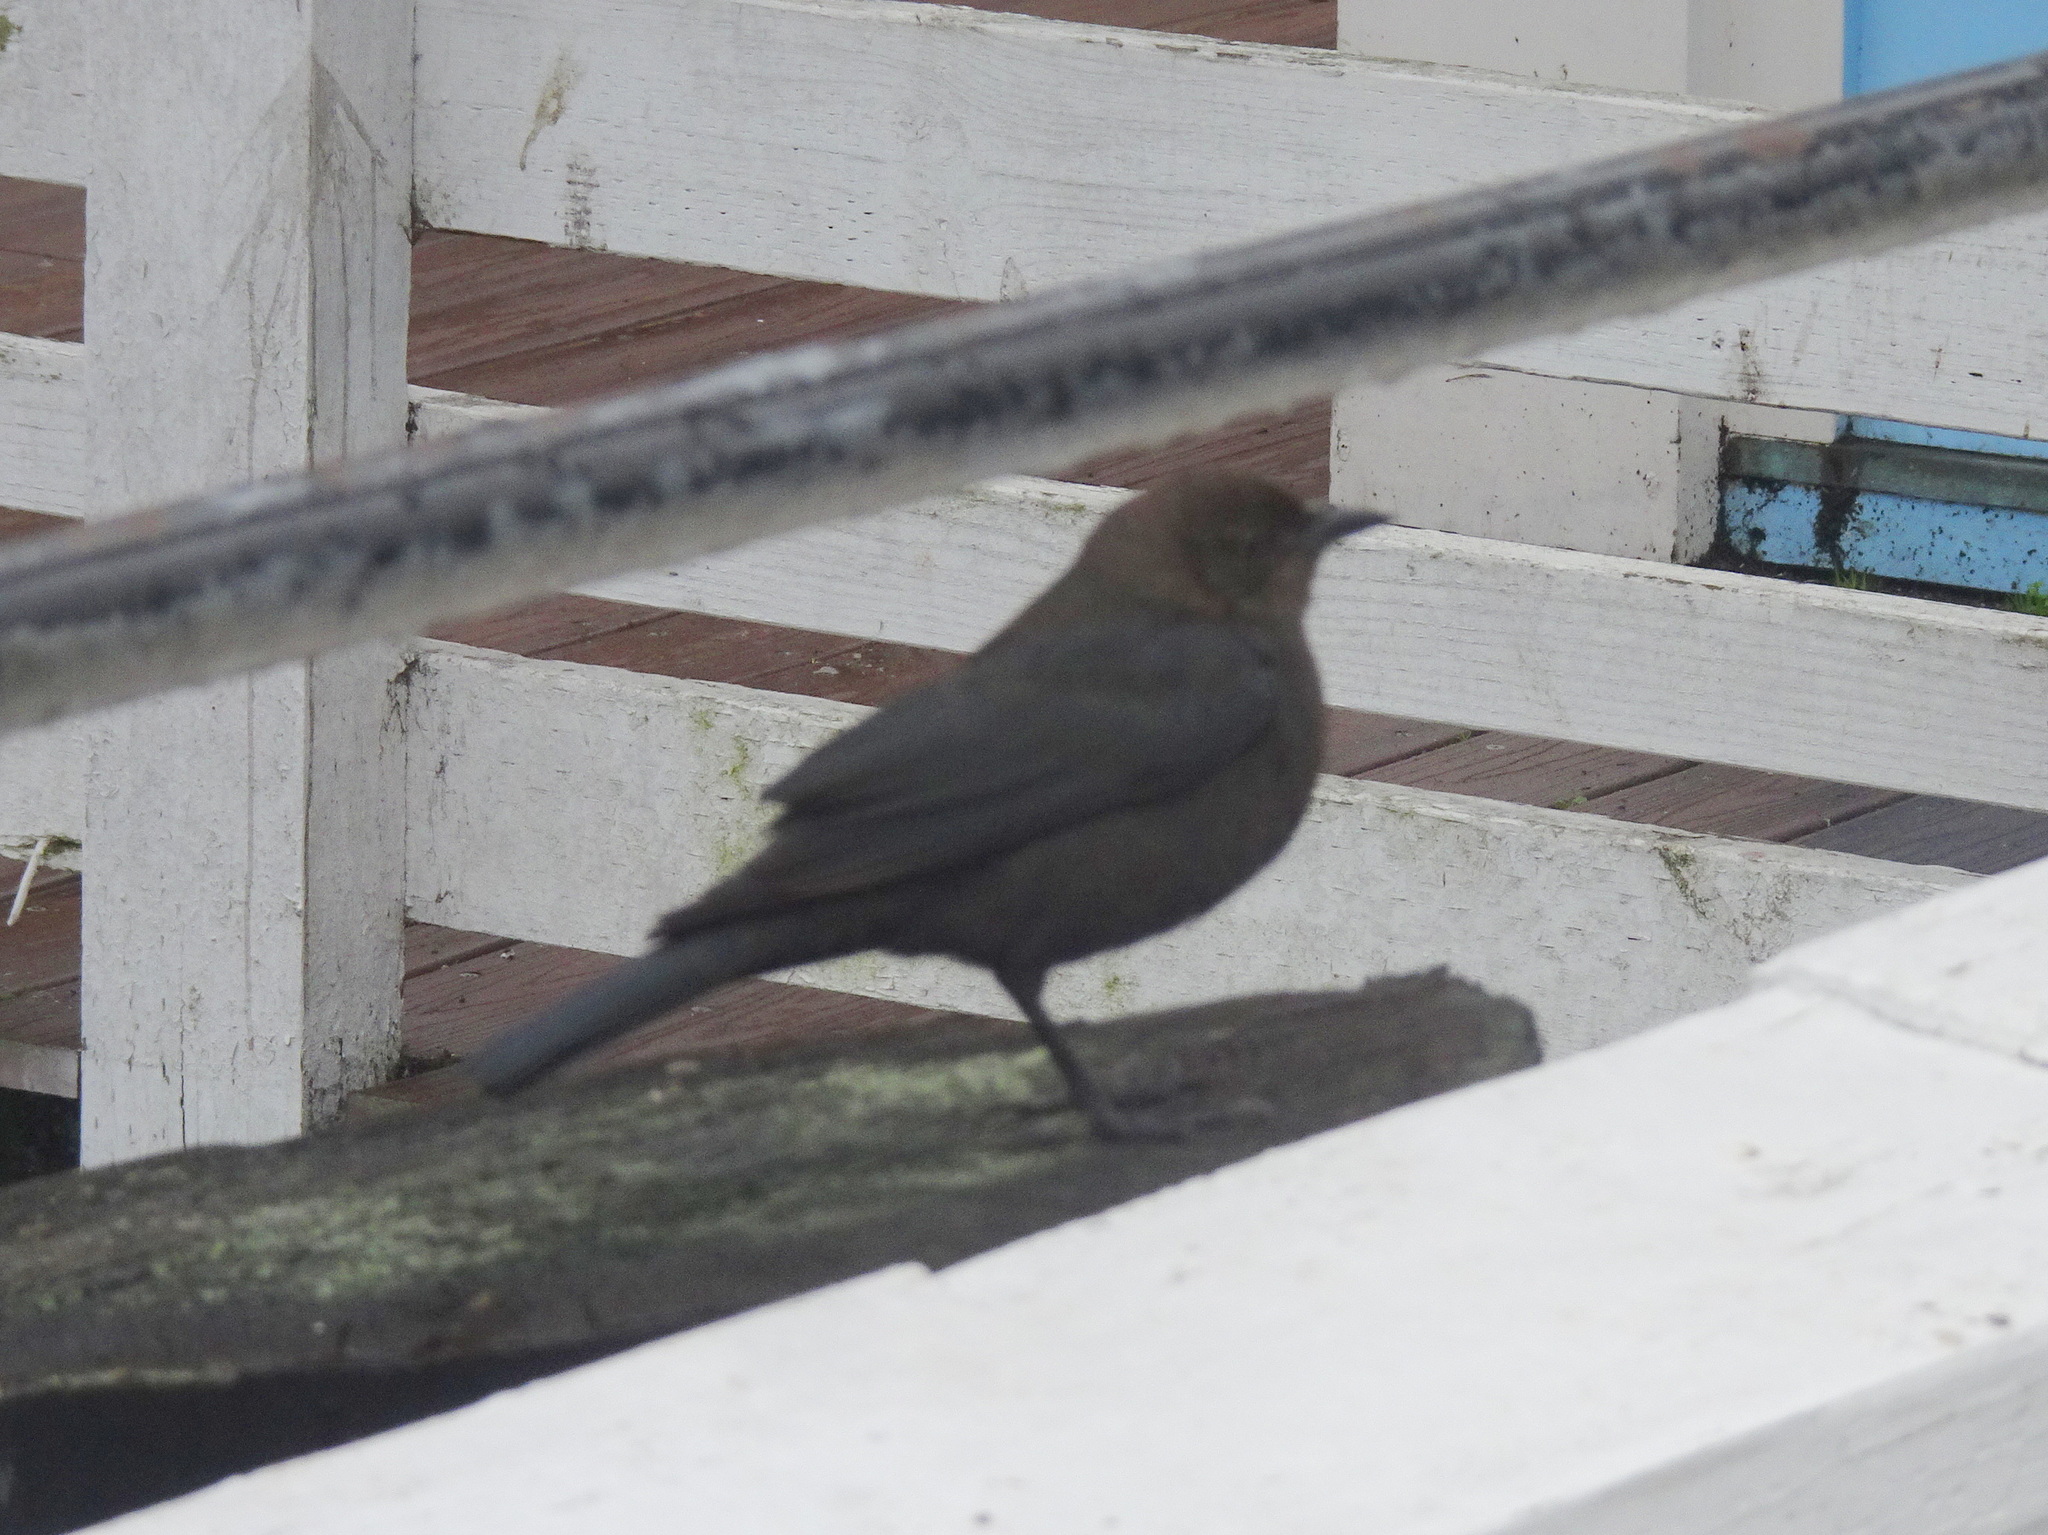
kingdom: Animalia
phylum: Chordata
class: Aves
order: Passeriformes
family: Icteridae
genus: Euphagus
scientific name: Euphagus cyanocephalus
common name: Brewer's blackbird
